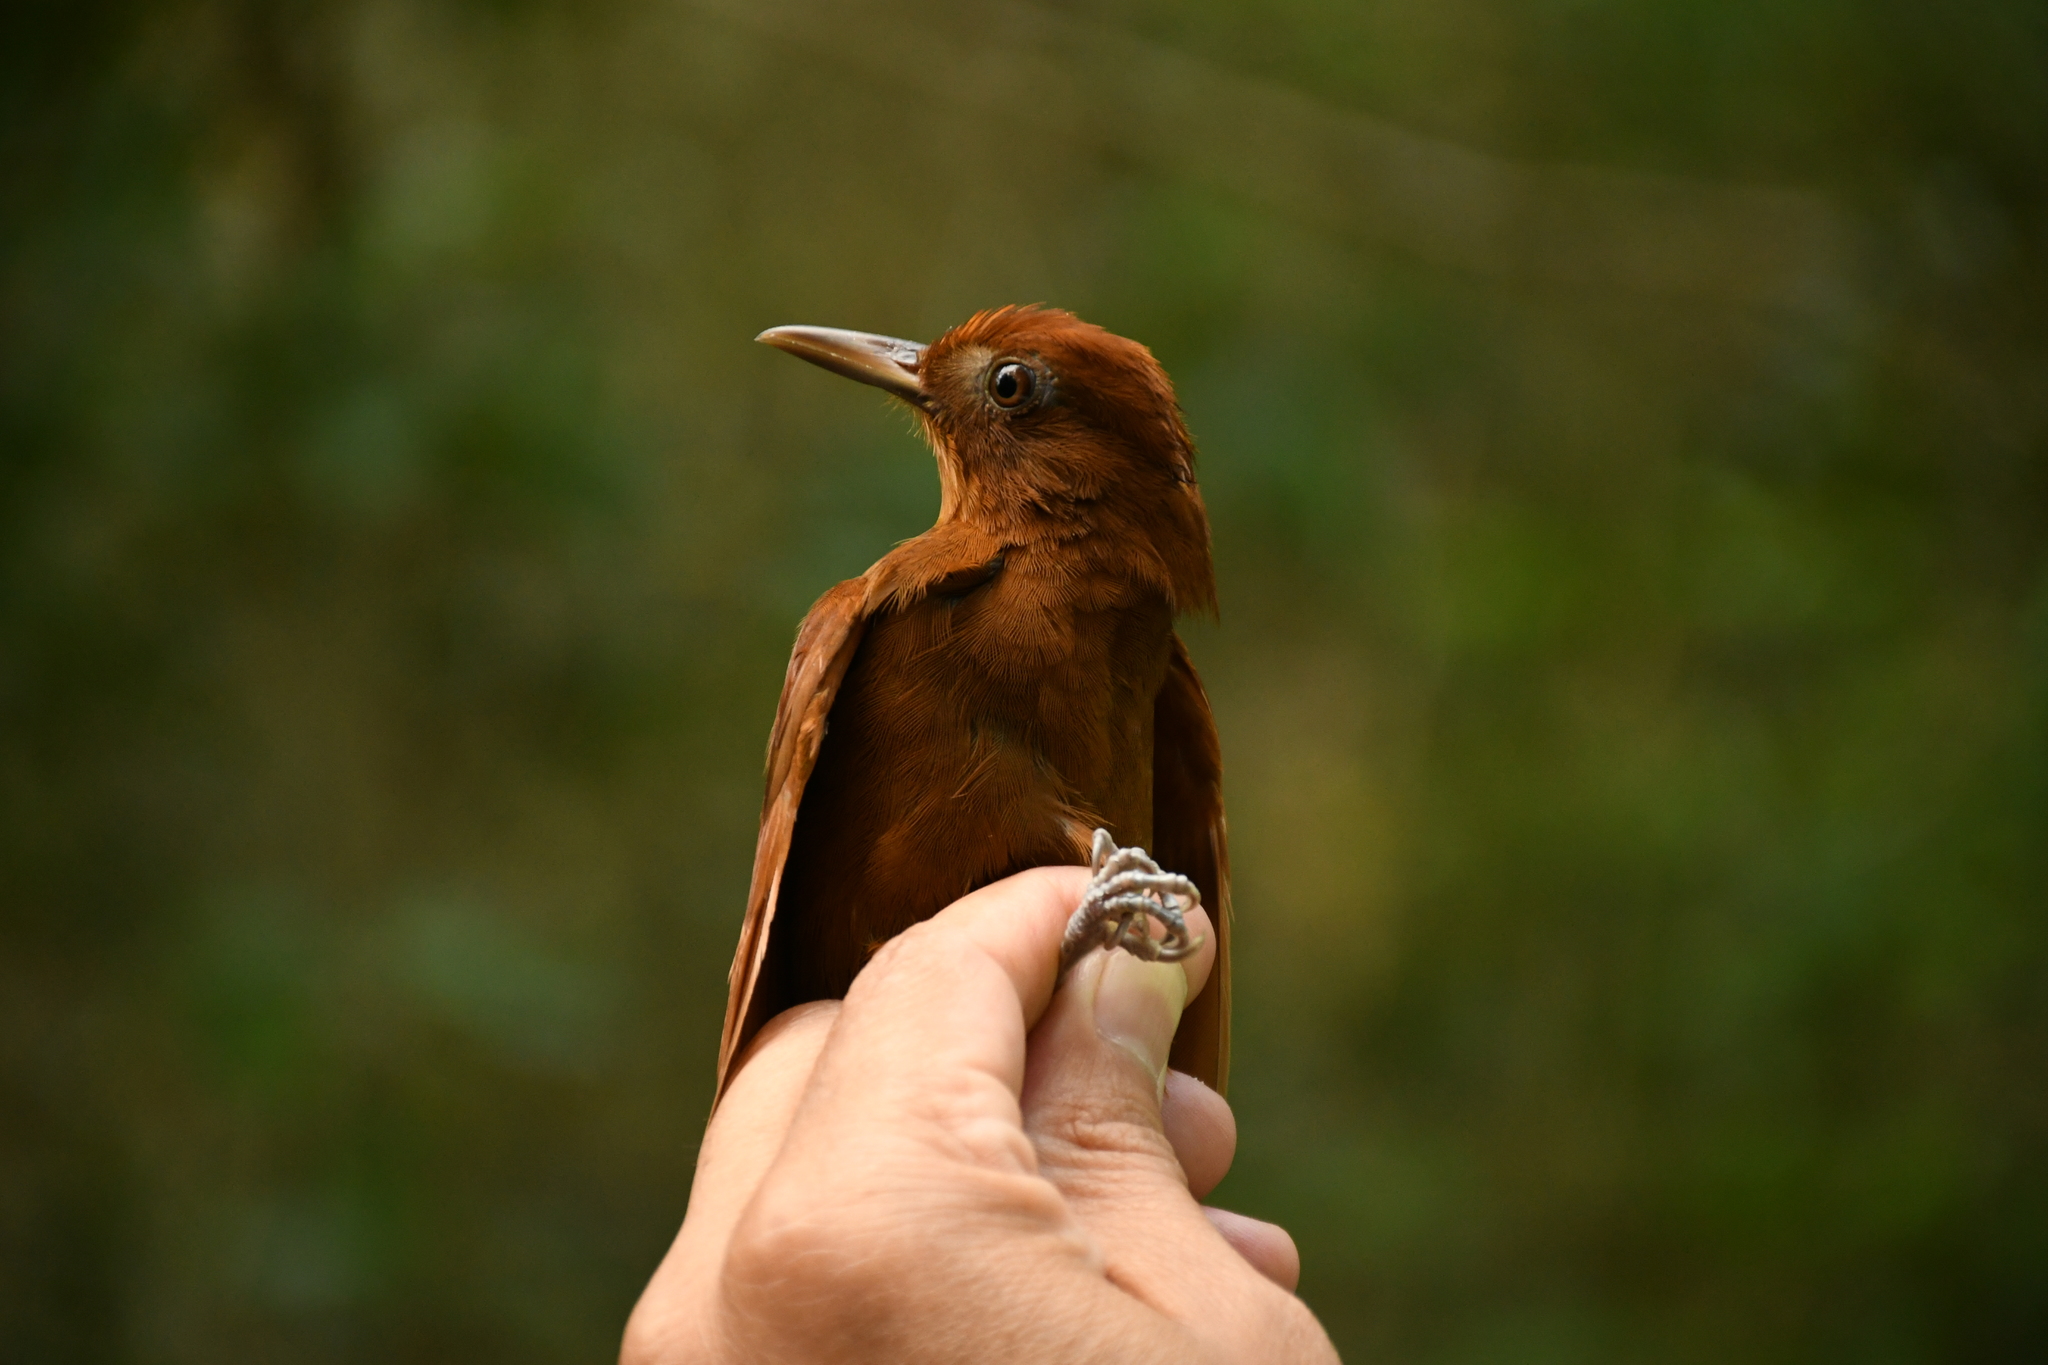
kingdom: Animalia
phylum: Chordata
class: Aves
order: Passeriformes
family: Furnariidae
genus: Dendrocincla
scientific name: Dendrocincla homochroa
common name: Ruddy woodcreeper
